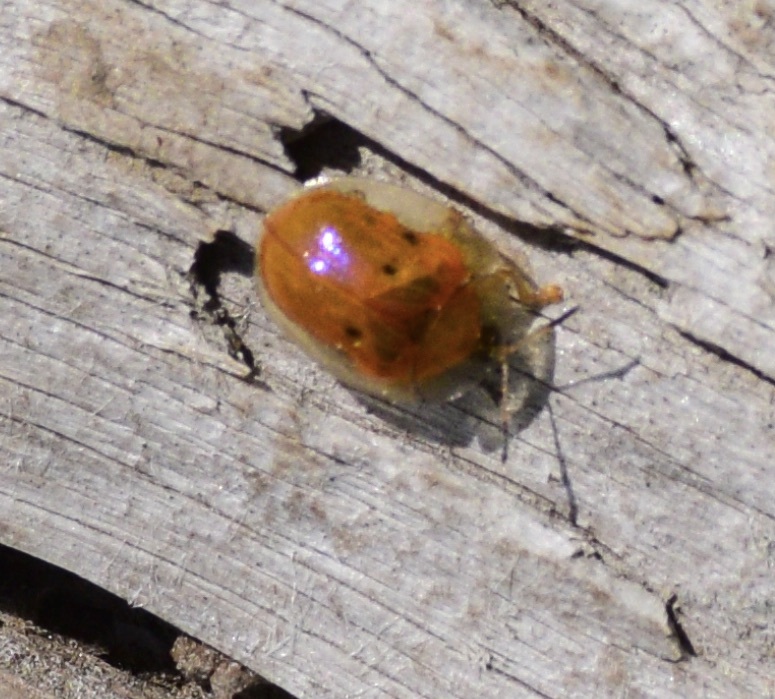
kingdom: Animalia
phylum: Arthropoda
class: Insecta
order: Coleoptera
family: Chrysomelidae
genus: Charidotella
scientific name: Charidotella sexpunctata
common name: Golden tortoise beetle
